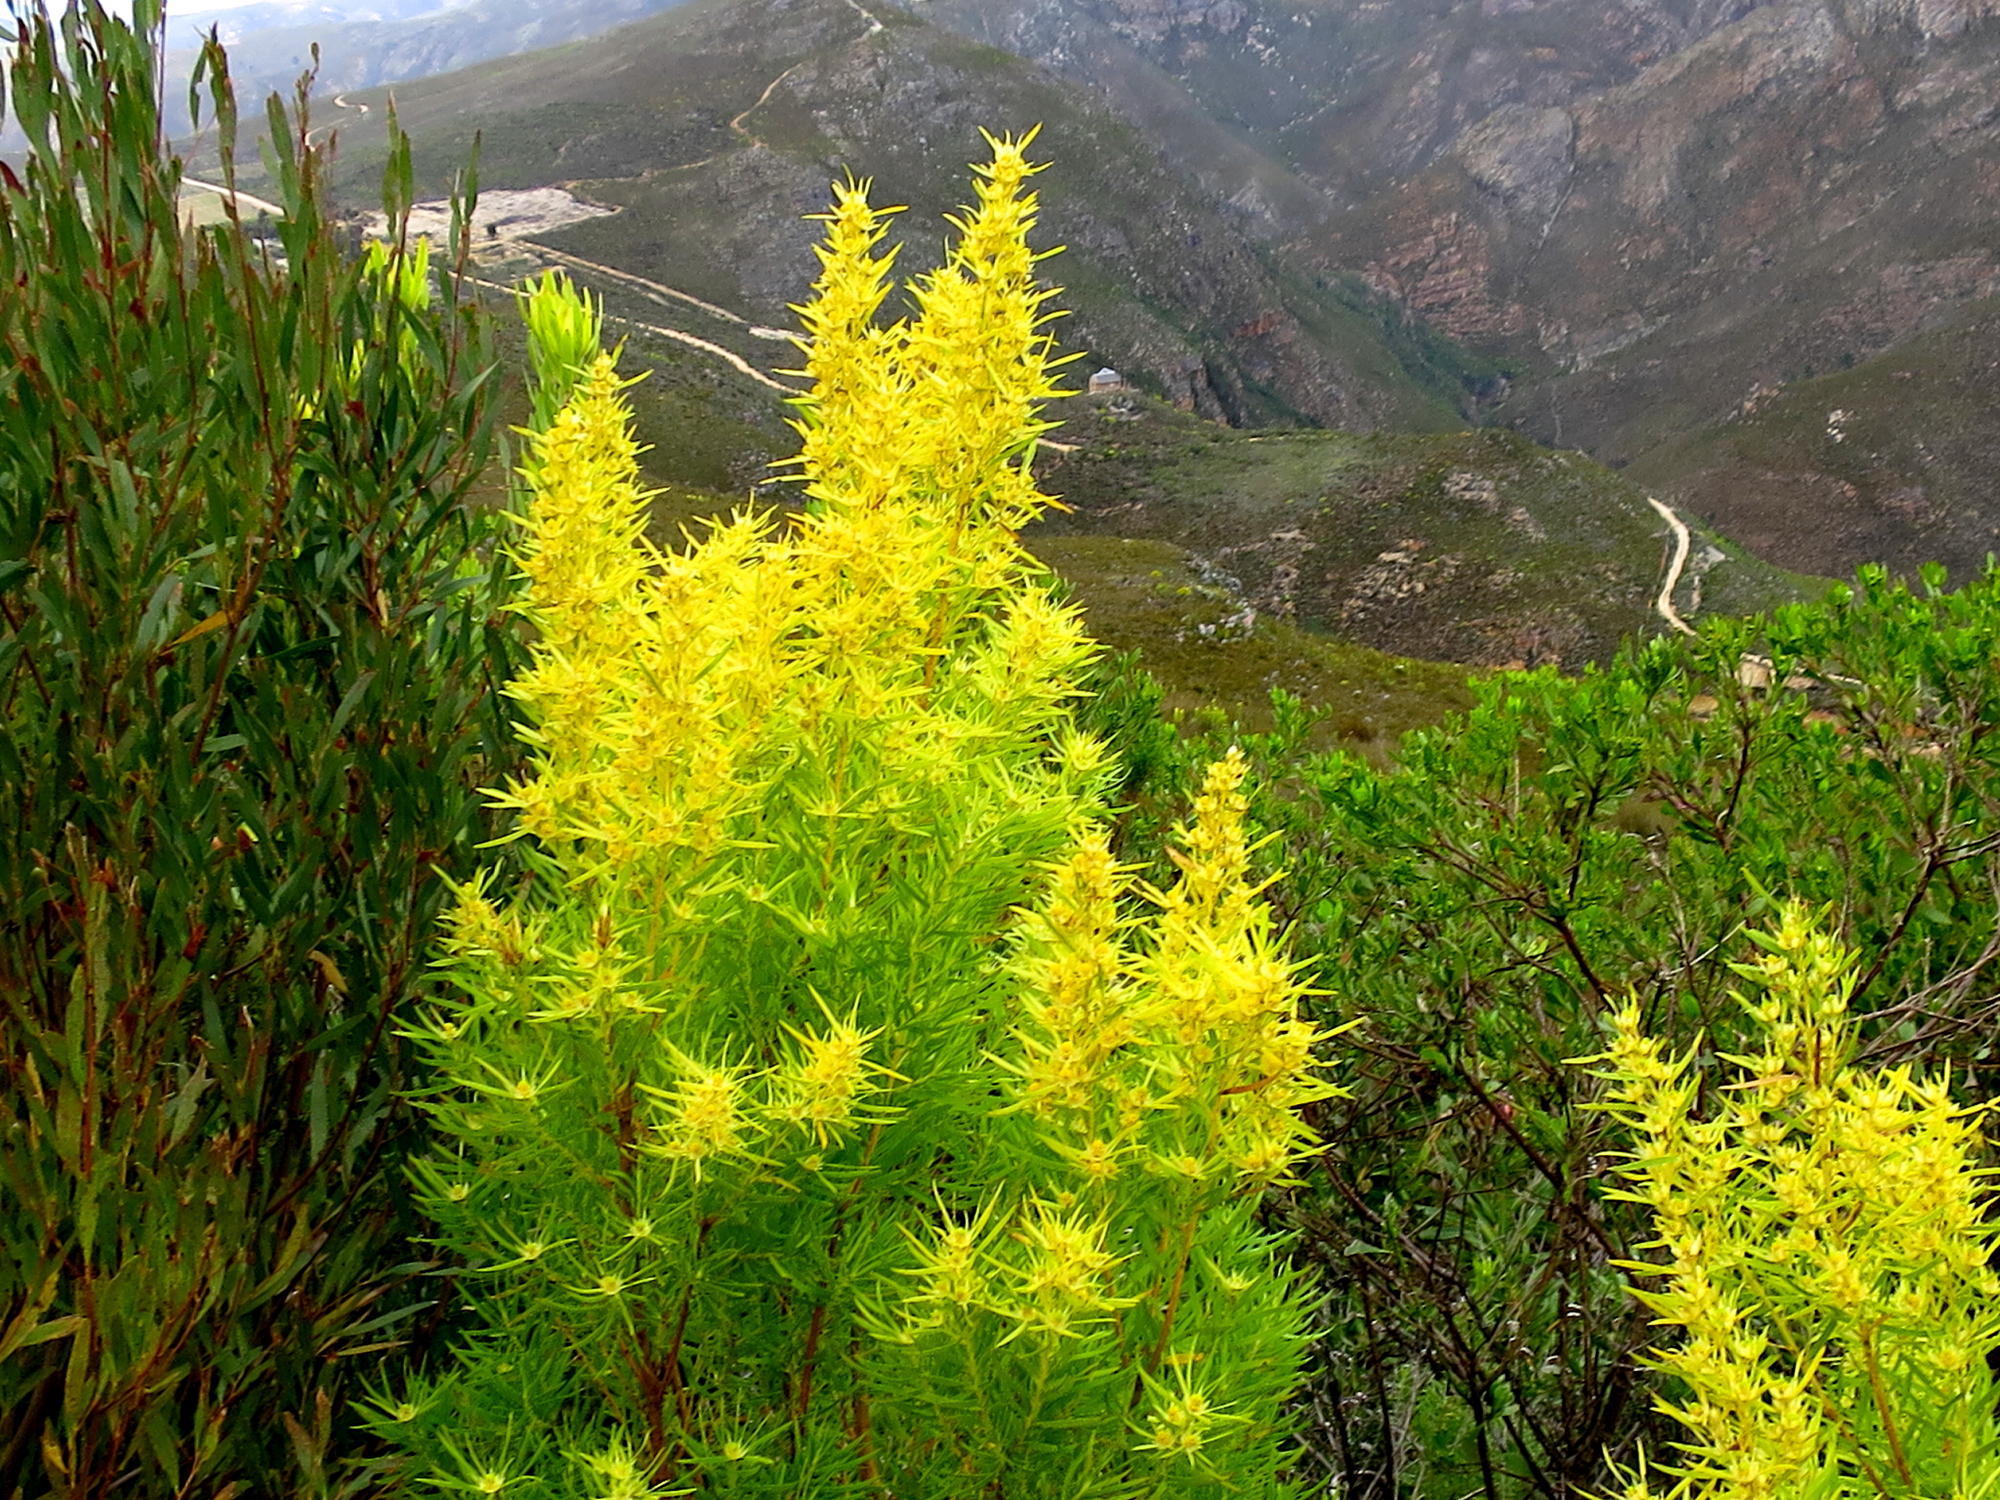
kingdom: Plantae
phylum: Tracheophyta
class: Magnoliopsida
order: Proteales
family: Proteaceae
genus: Leucadendron
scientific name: Leucadendron salicifolium
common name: Common stream conebush
